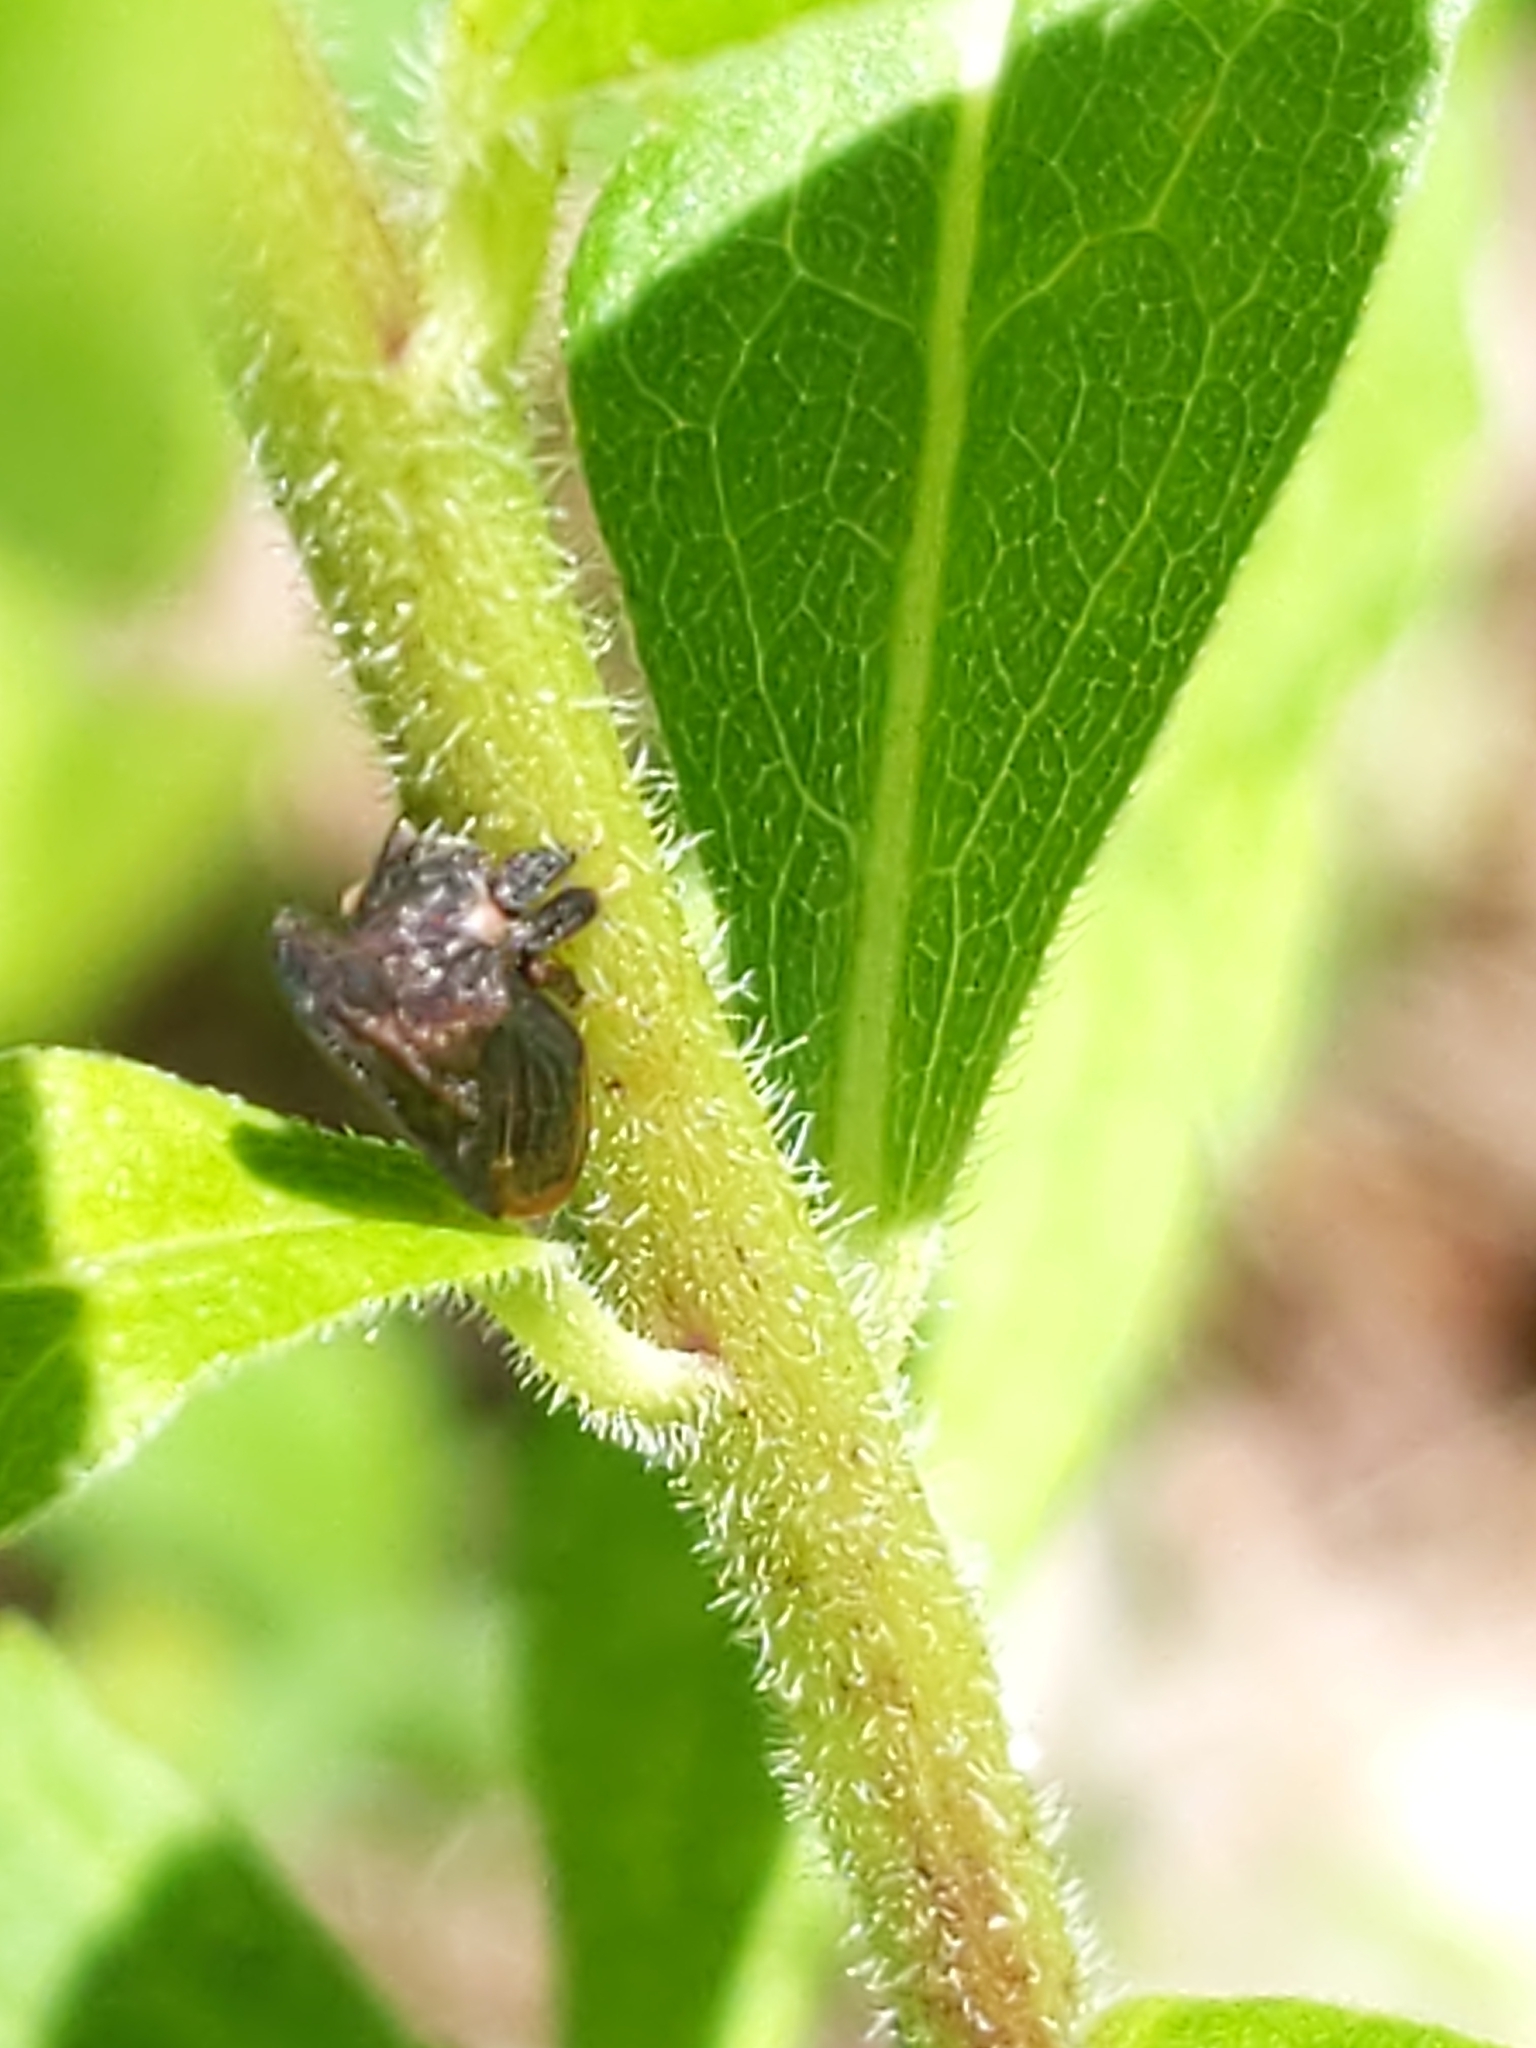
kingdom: Animalia
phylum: Arthropoda
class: Insecta
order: Hemiptera
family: Membracidae
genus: Enchenopa
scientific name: Enchenopa latipes
